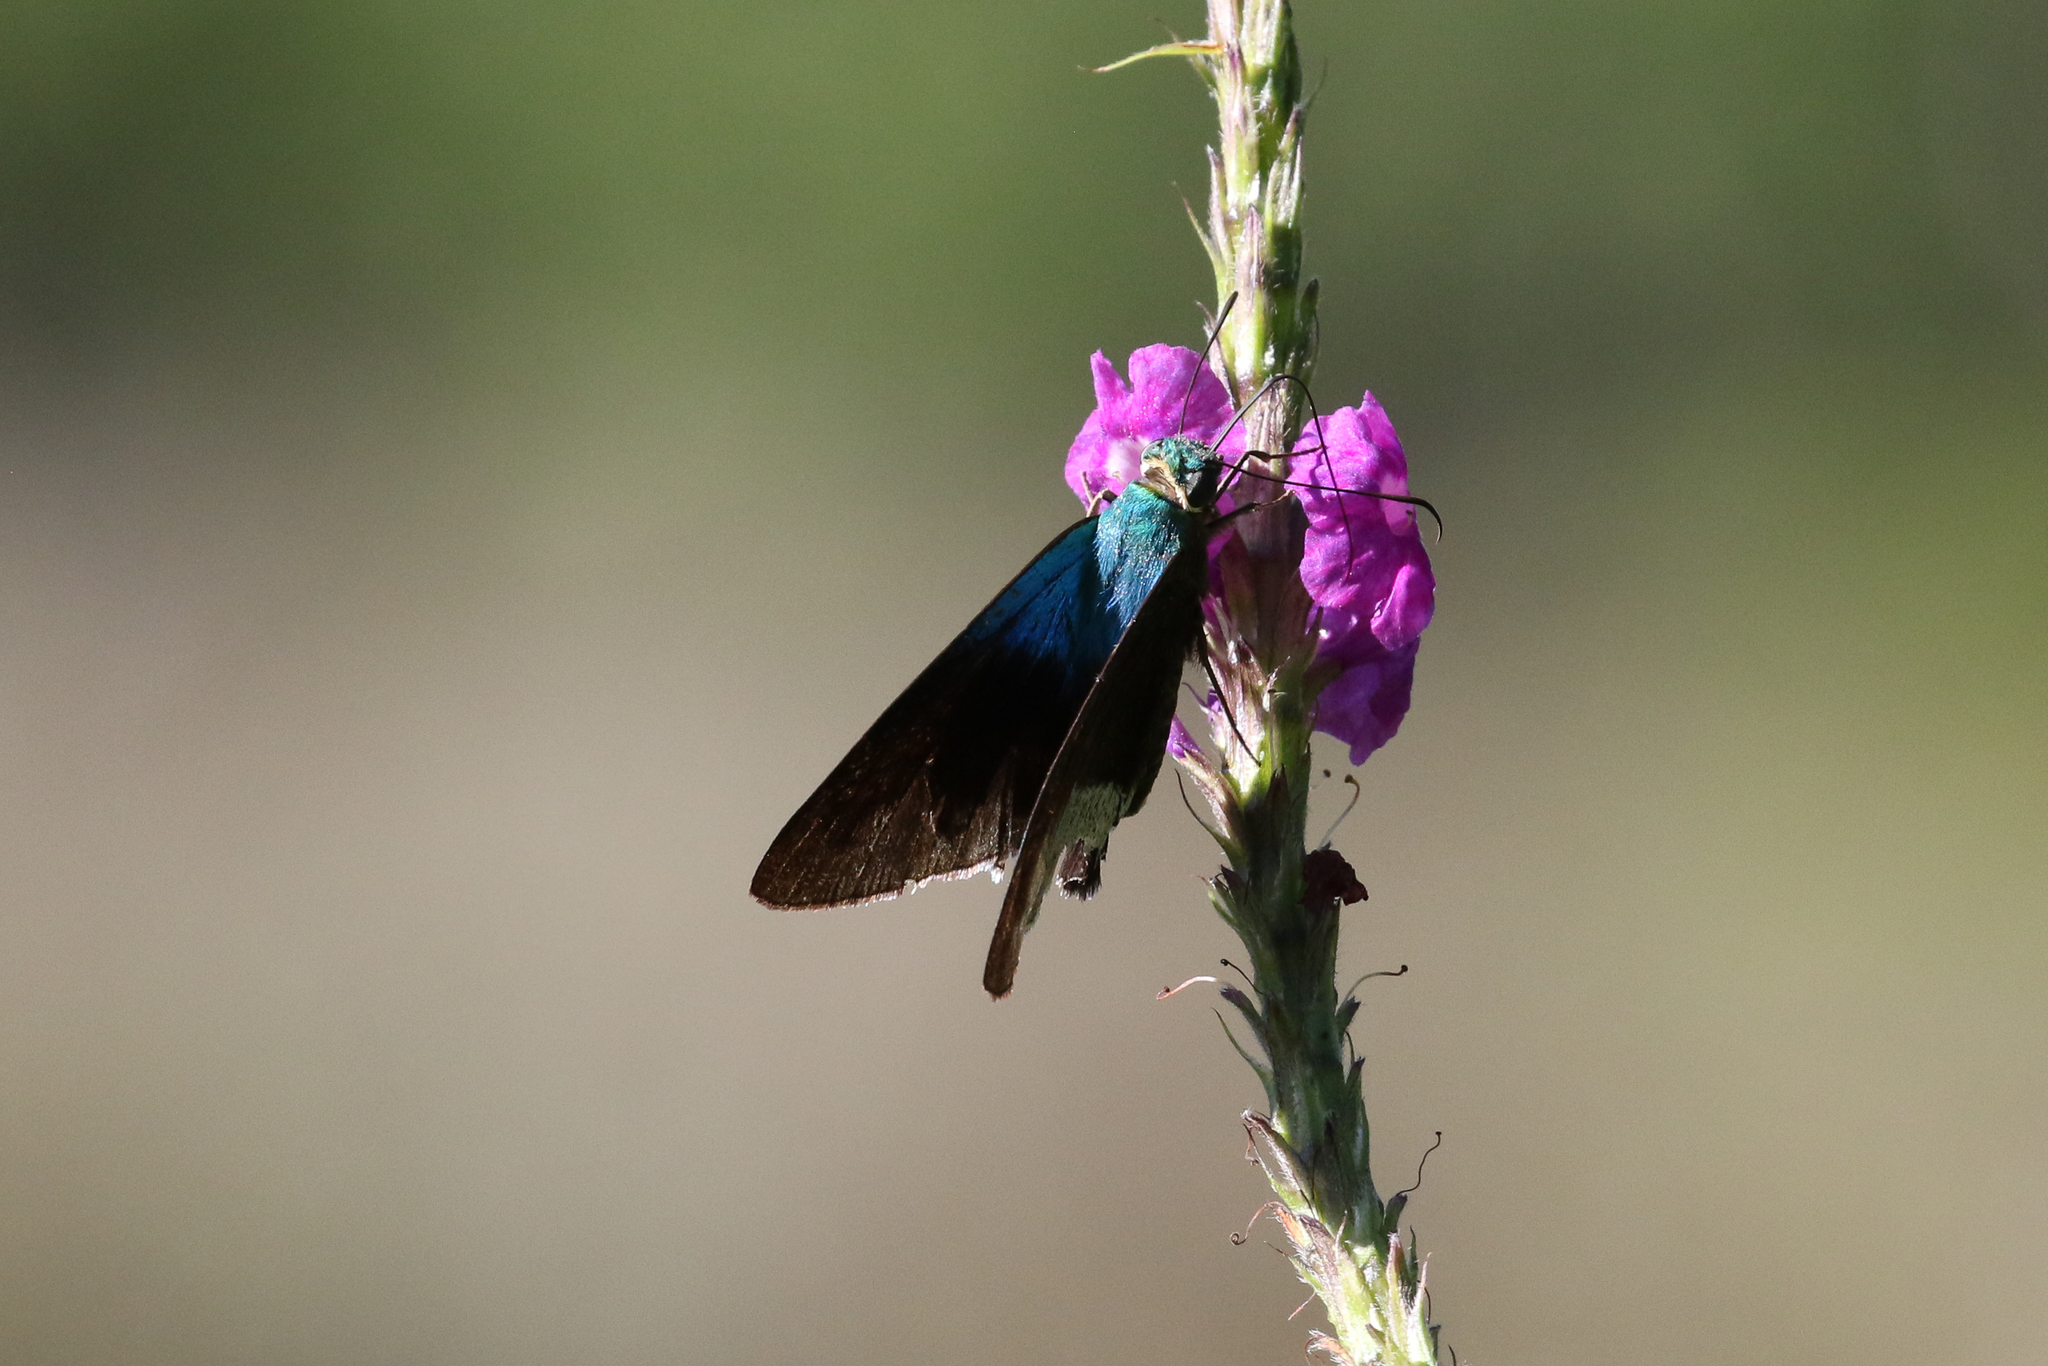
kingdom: Animalia
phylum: Arthropoda
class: Insecta
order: Lepidoptera
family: Hesperiidae
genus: Astraptes
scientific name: Astraptes alardus
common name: Frosted flasher
